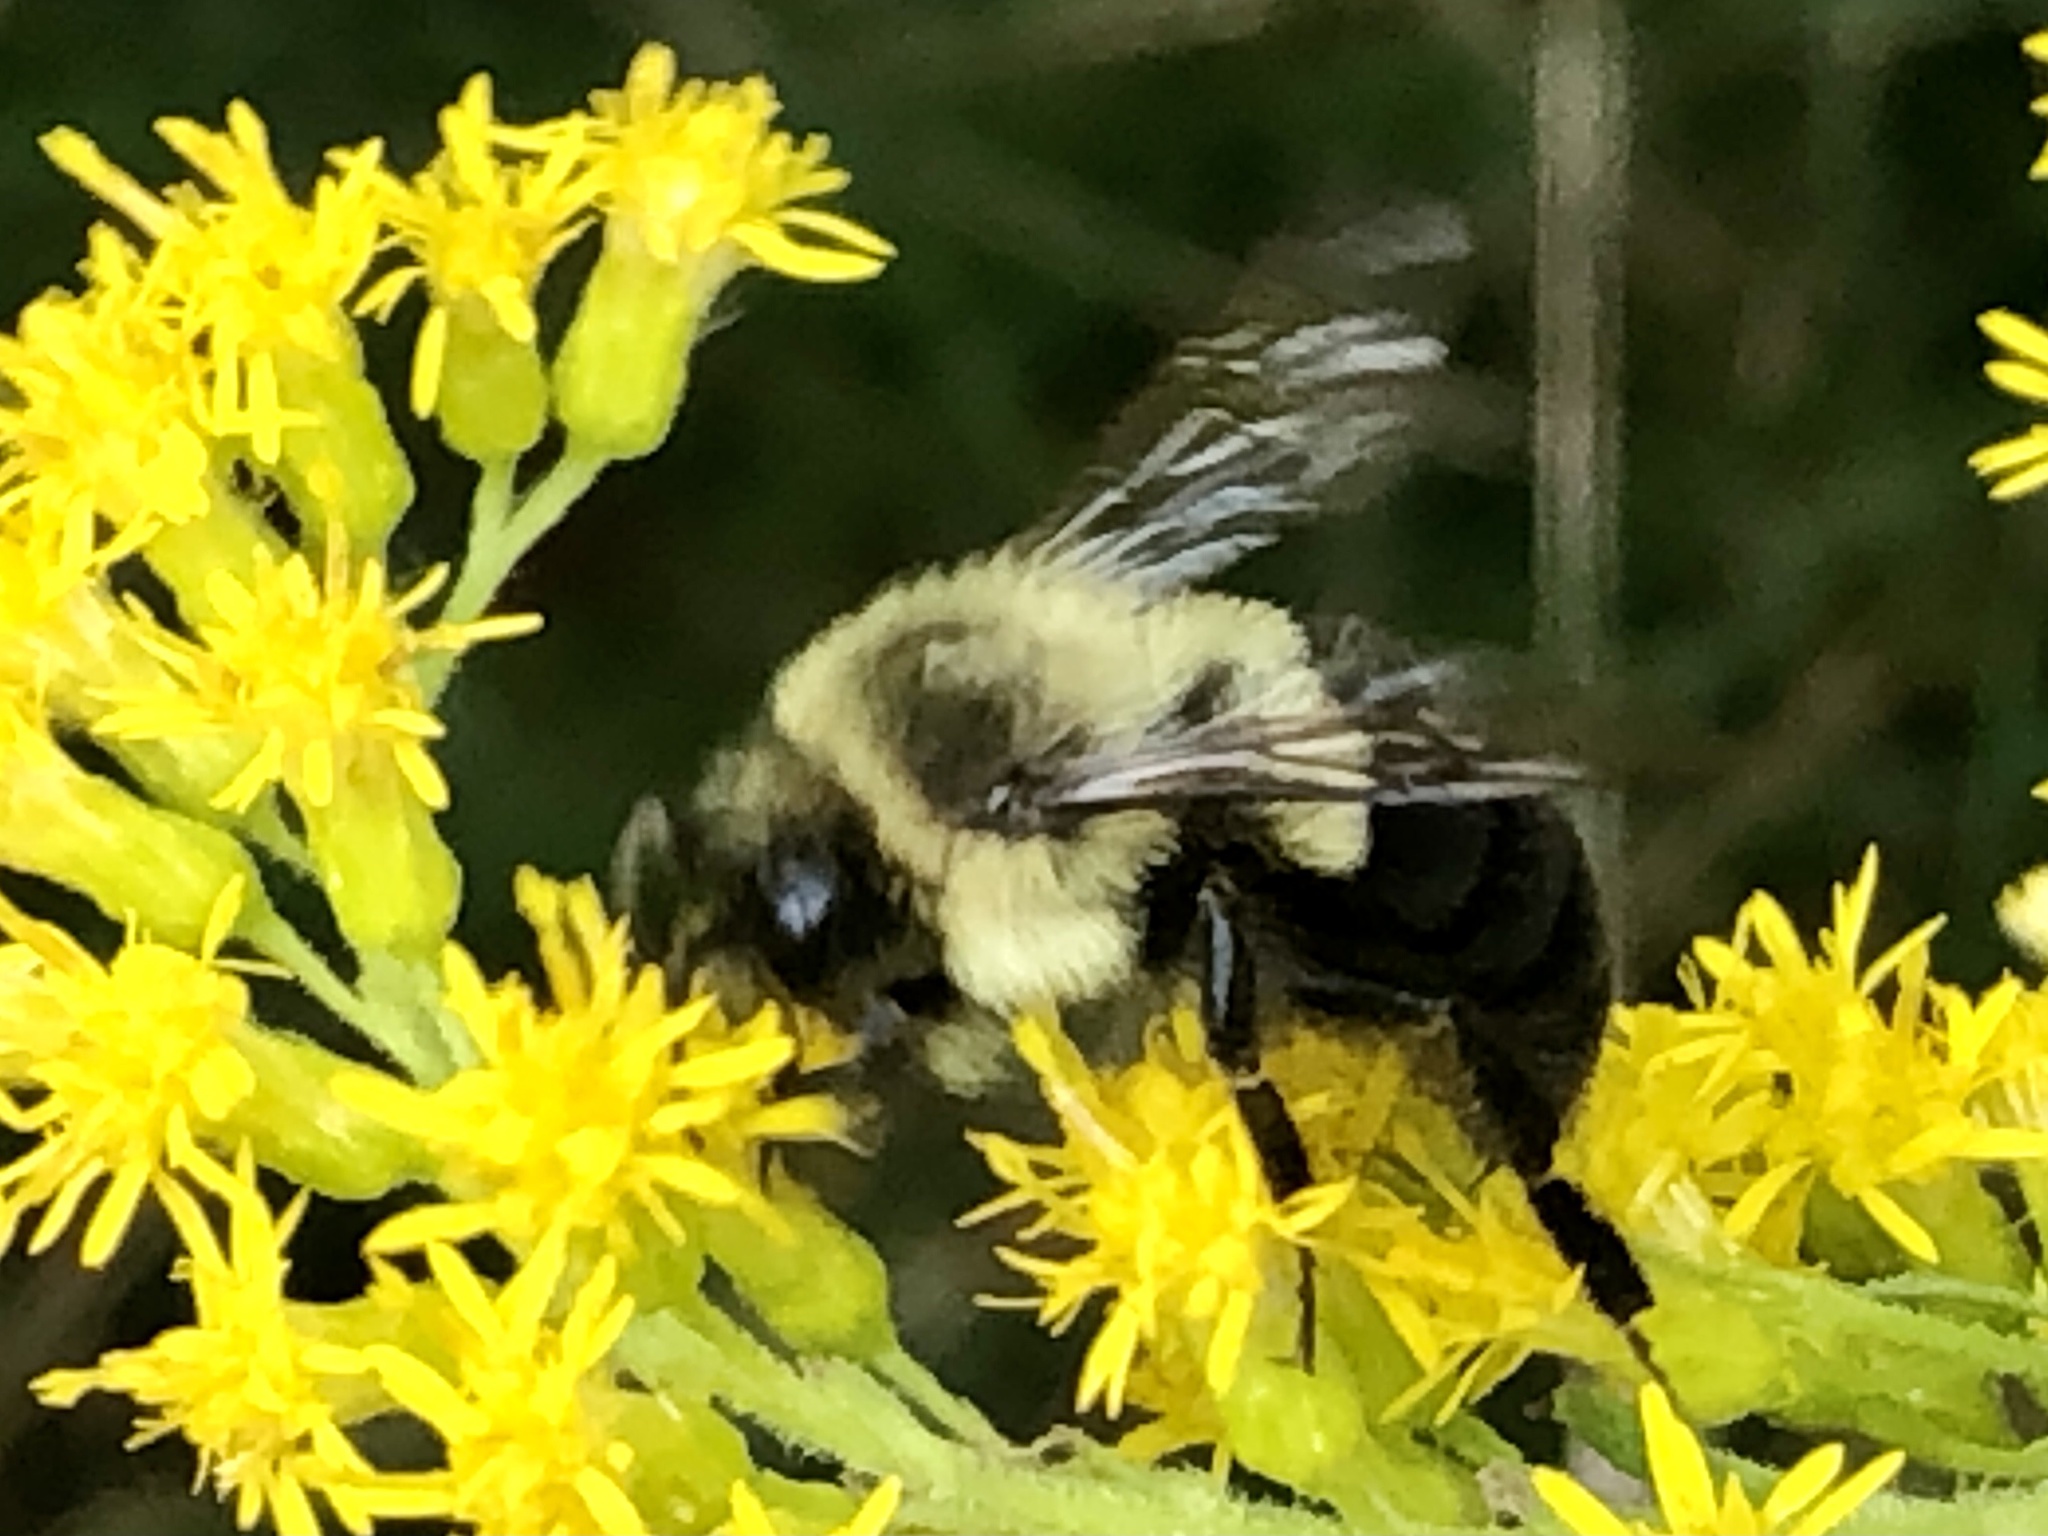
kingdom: Animalia
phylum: Arthropoda
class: Insecta
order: Hymenoptera
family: Apidae
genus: Bombus
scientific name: Bombus impatiens
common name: Common eastern bumble bee
